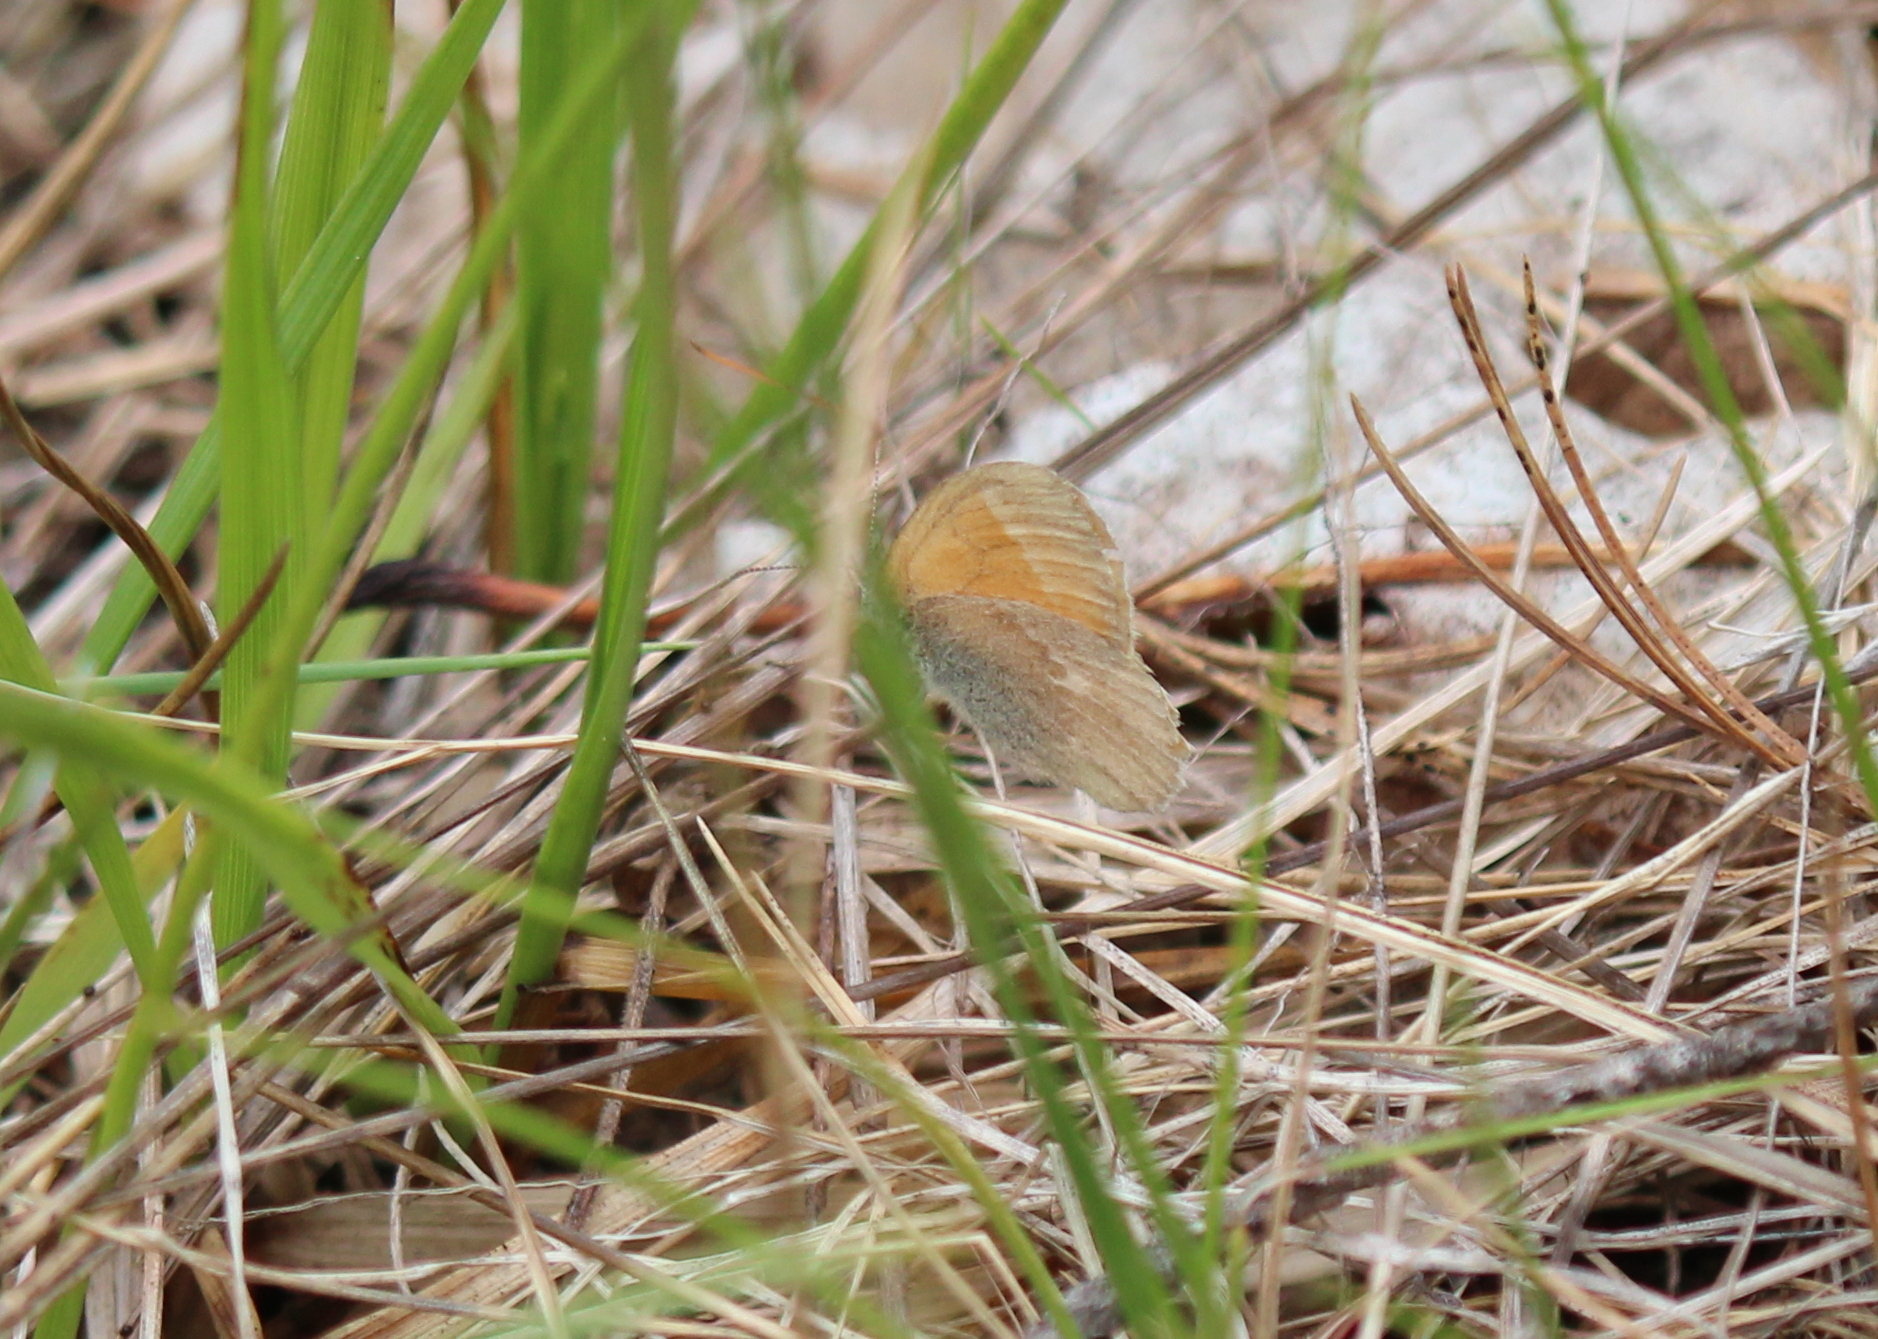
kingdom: Animalia
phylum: Arthropoda
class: Insecta
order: Lepidoptera
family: Nymphalidae
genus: Coenonympha
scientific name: Coenonympha california
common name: Common ringlet
